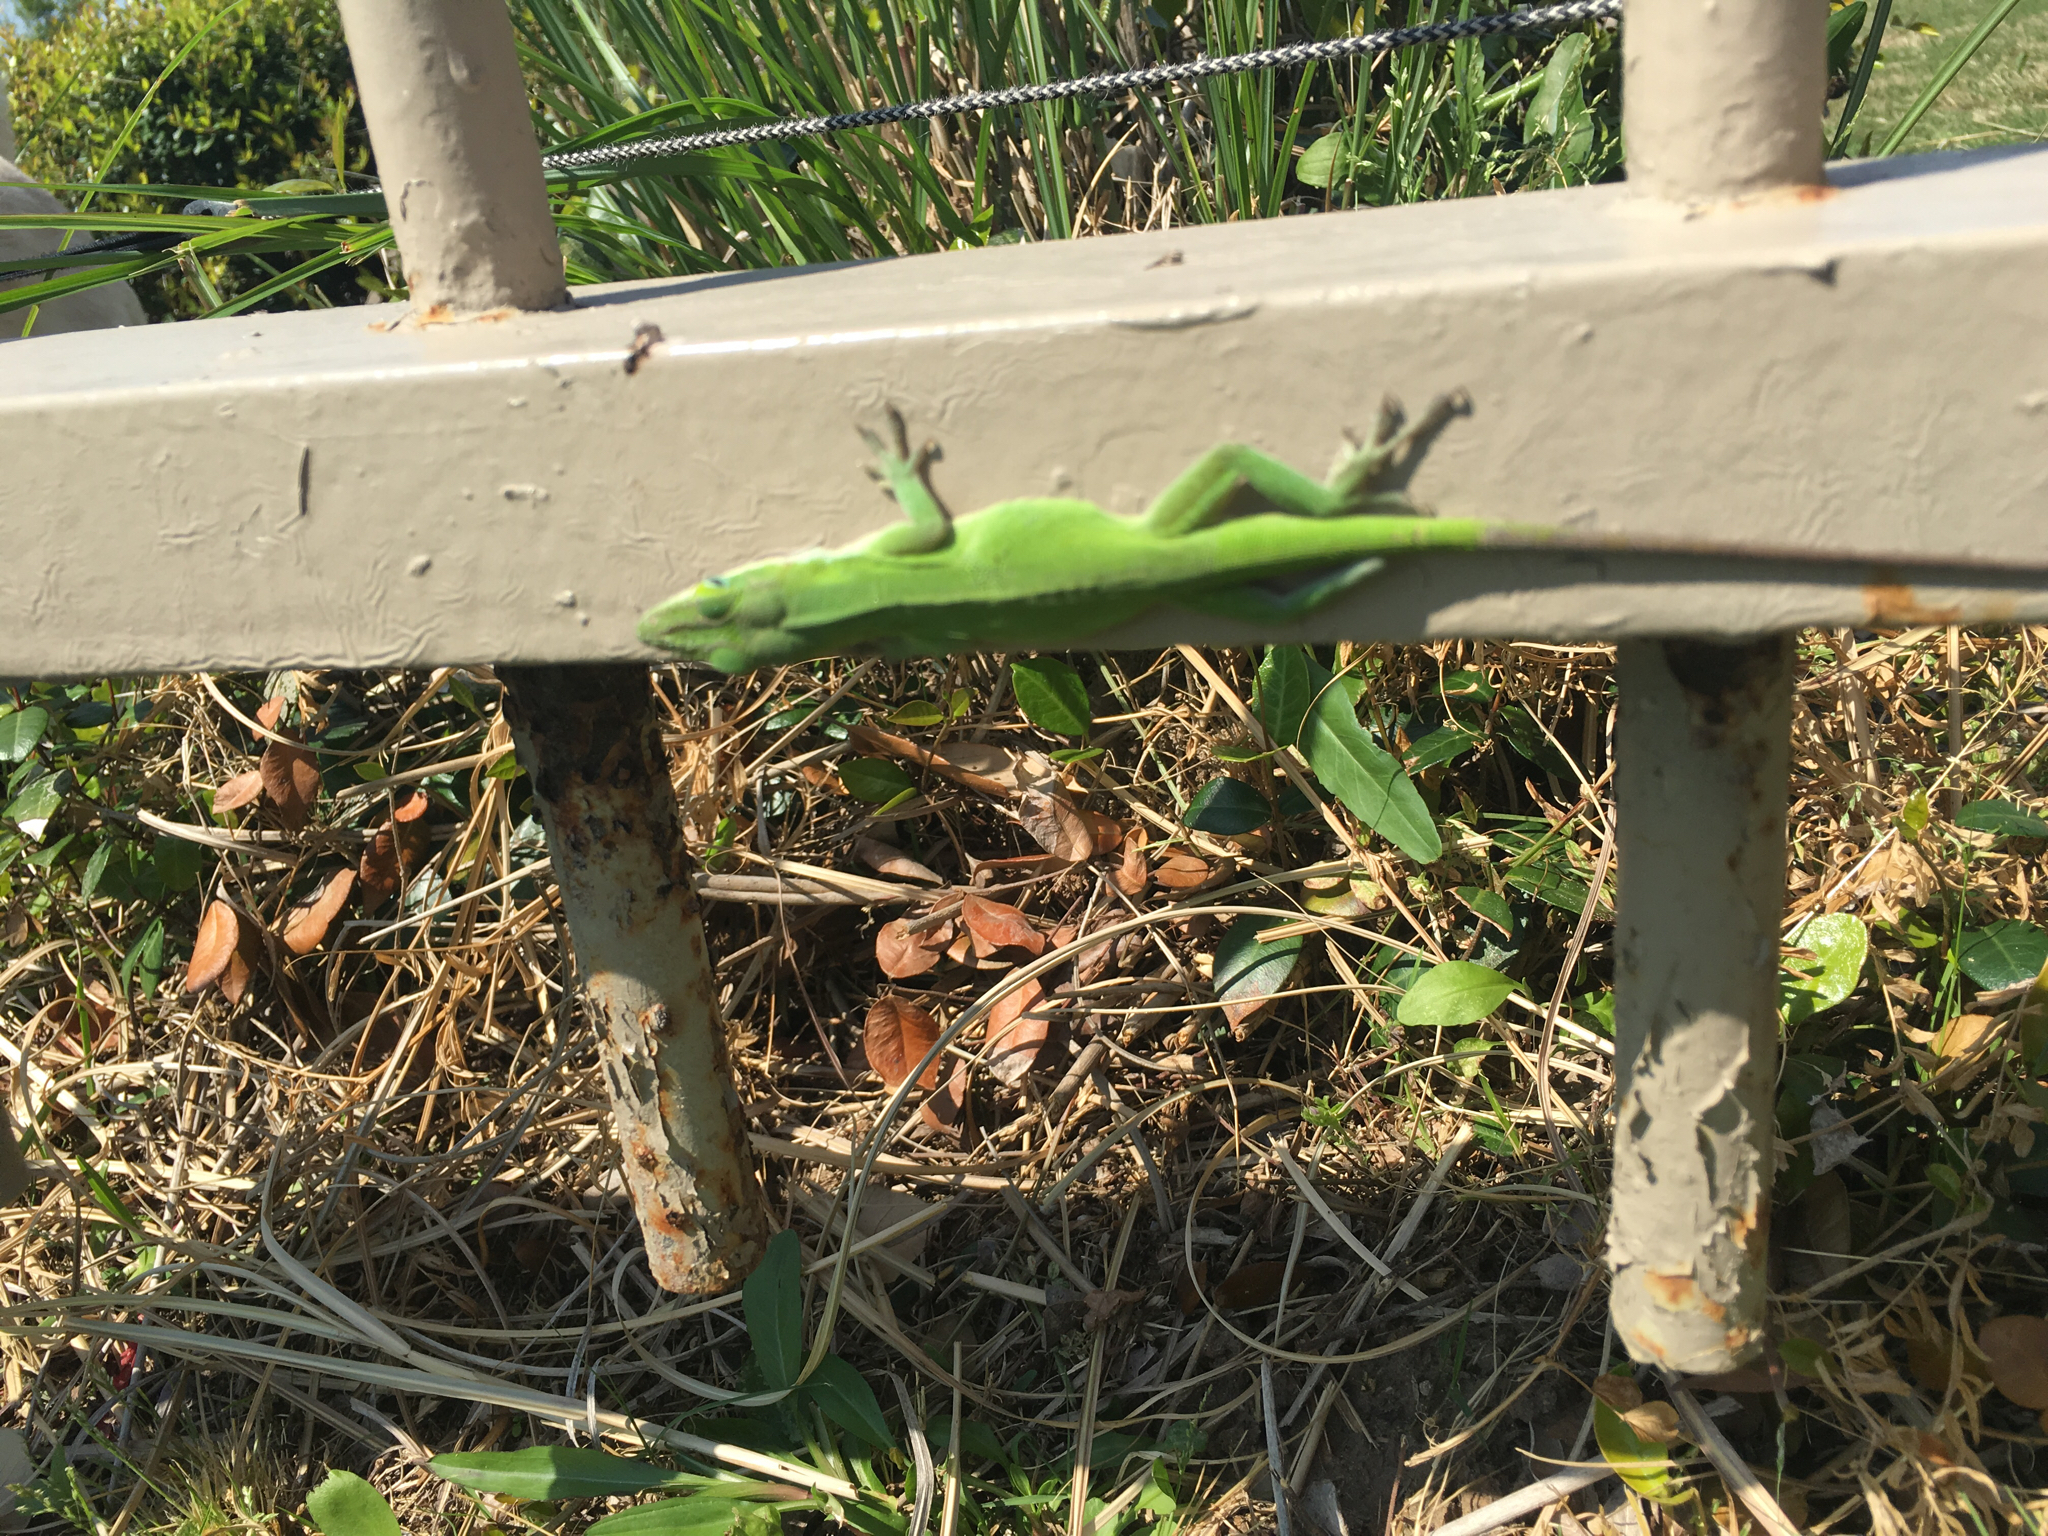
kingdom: Animalia
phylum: Chordata
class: Squamata
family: Dactyloidae
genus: Anolis
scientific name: Anolis carolinensis
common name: Green anole
